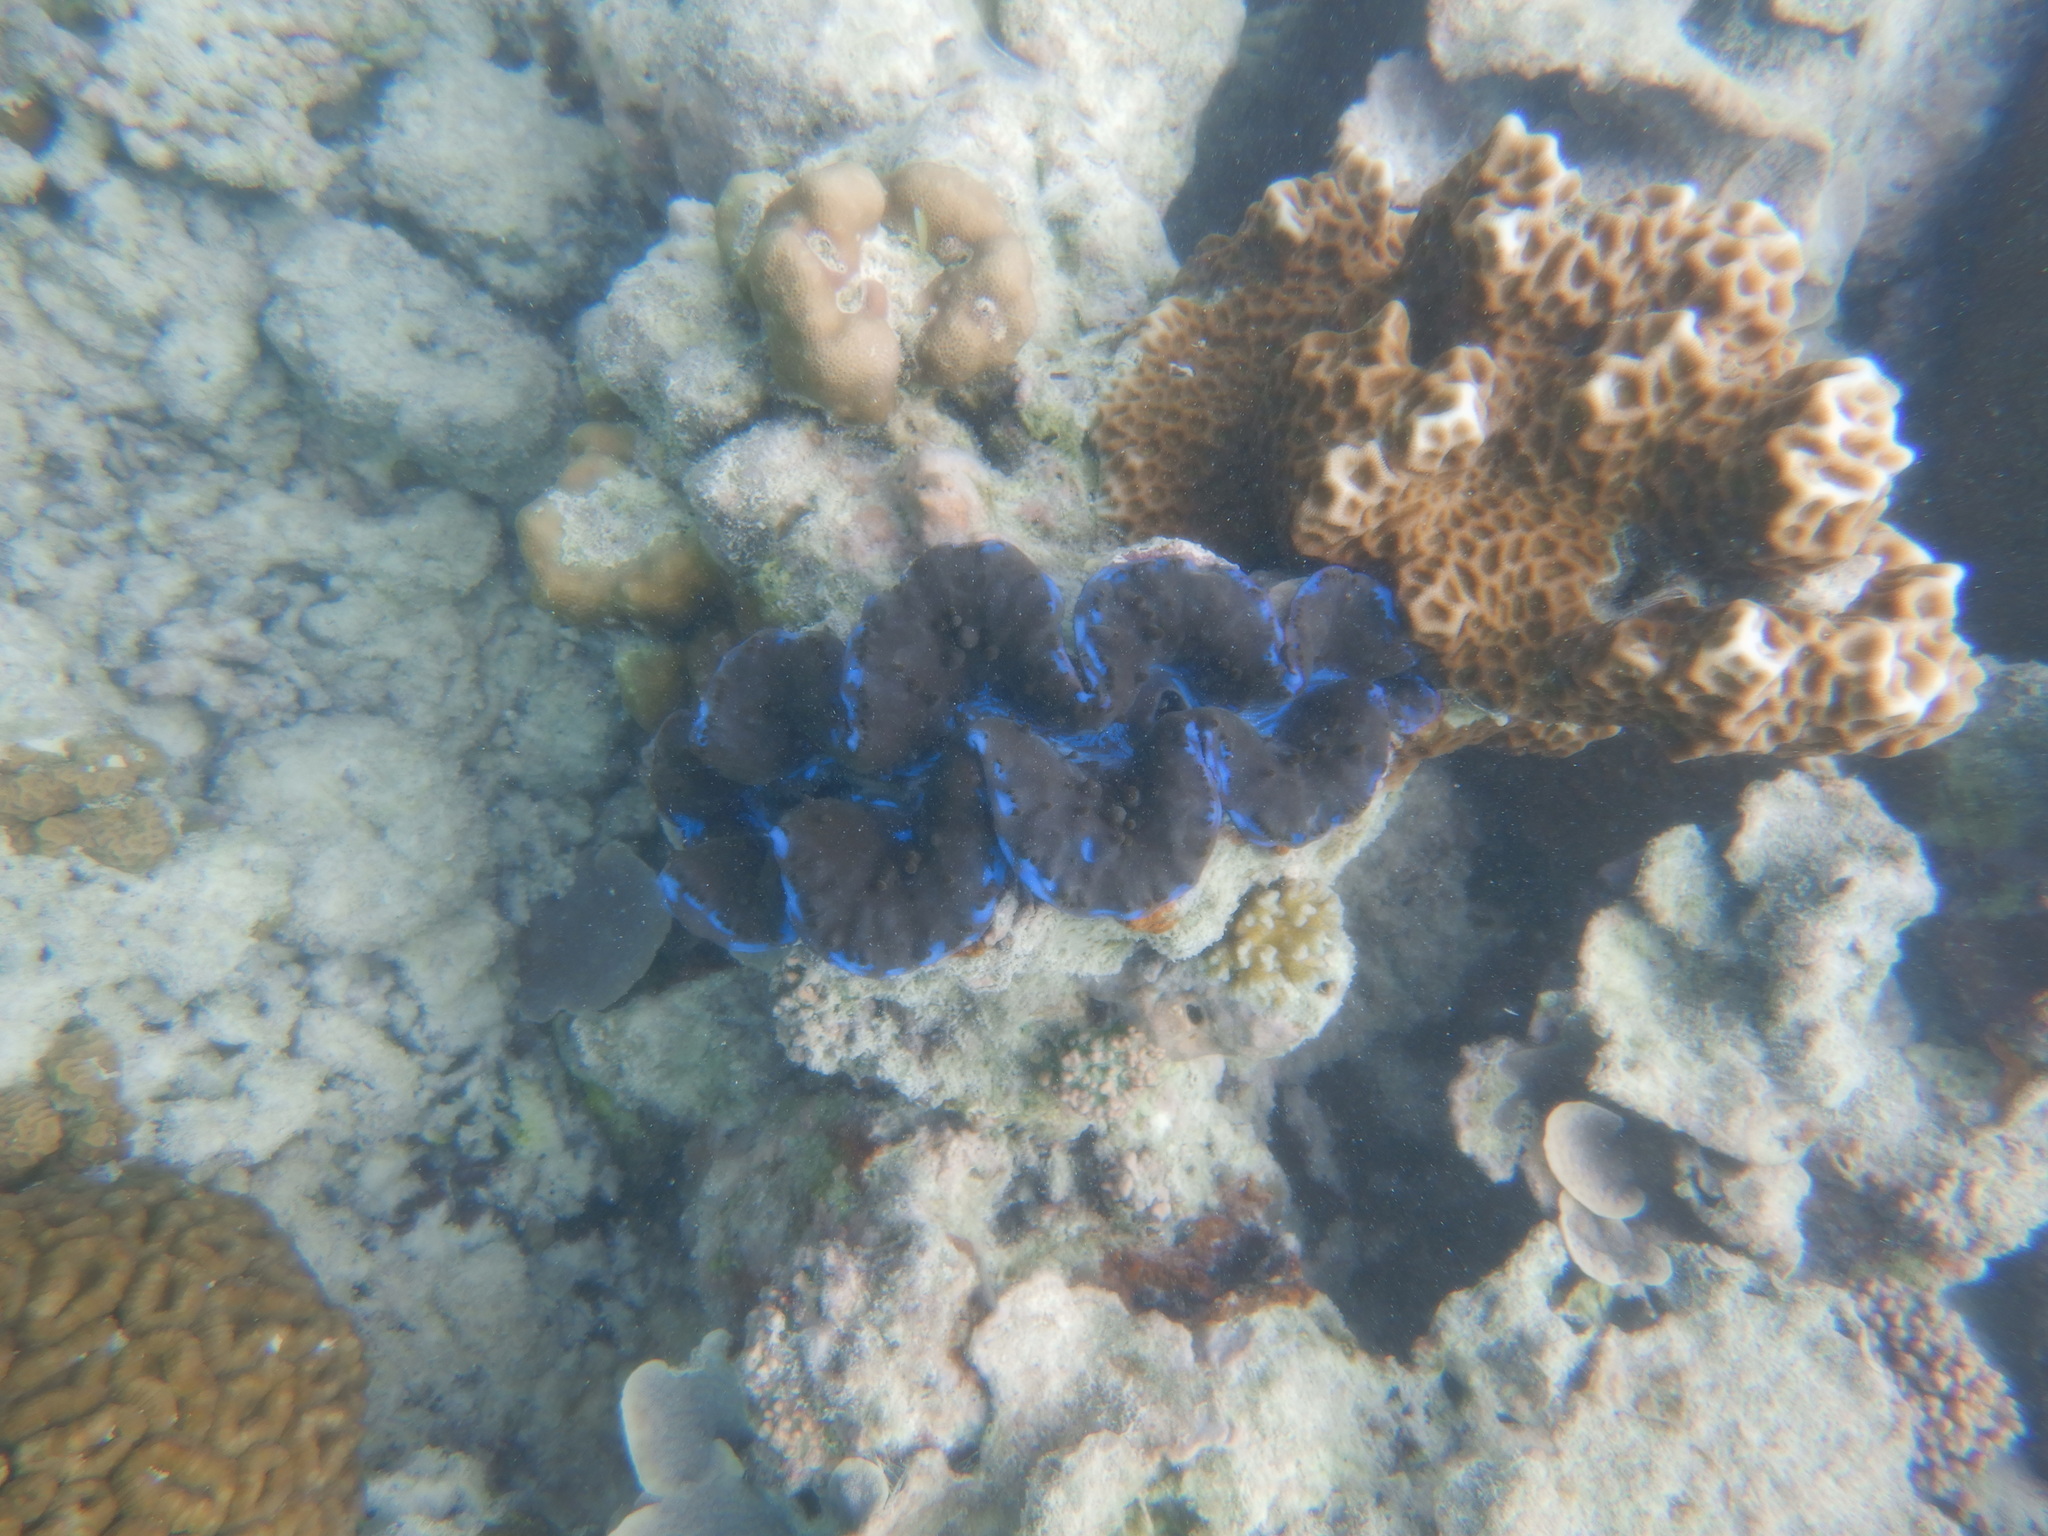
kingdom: Animalia
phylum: Mollusca
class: Bivalvia
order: Cardiida
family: Cardiidae
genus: Tridacna
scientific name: Tridacna maxima
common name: Small giant clam
